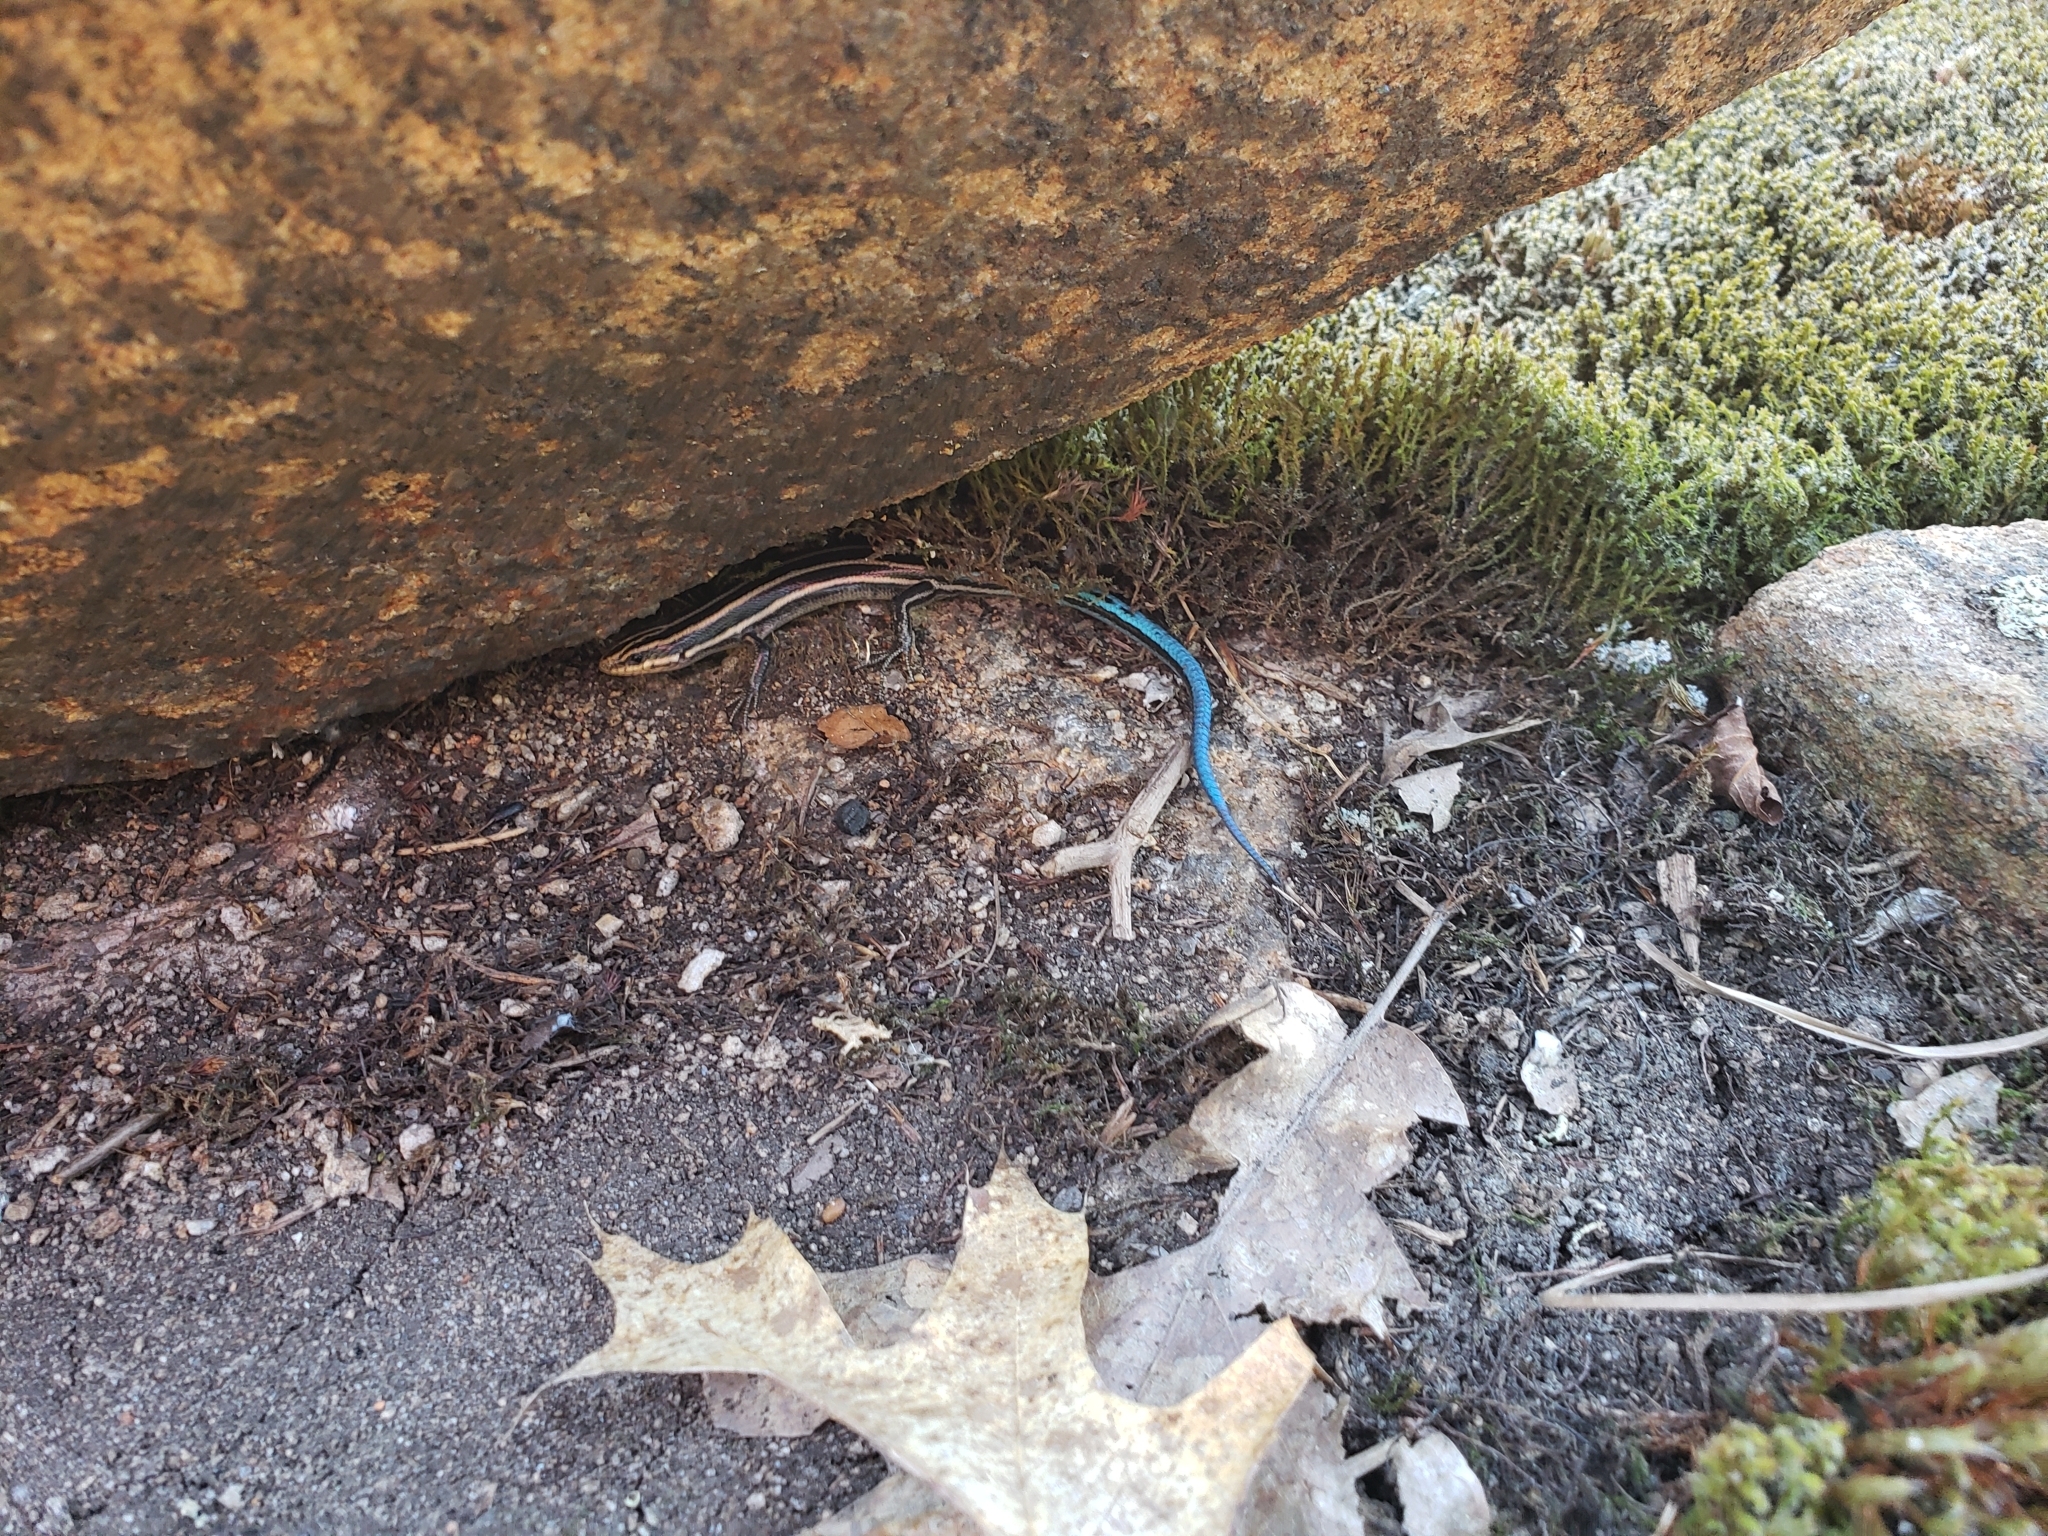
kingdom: Animalia
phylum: Chordata
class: Squamata
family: Scincidae
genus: Plestiodon
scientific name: Plestiodon fasciatus
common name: Five-lined skink
